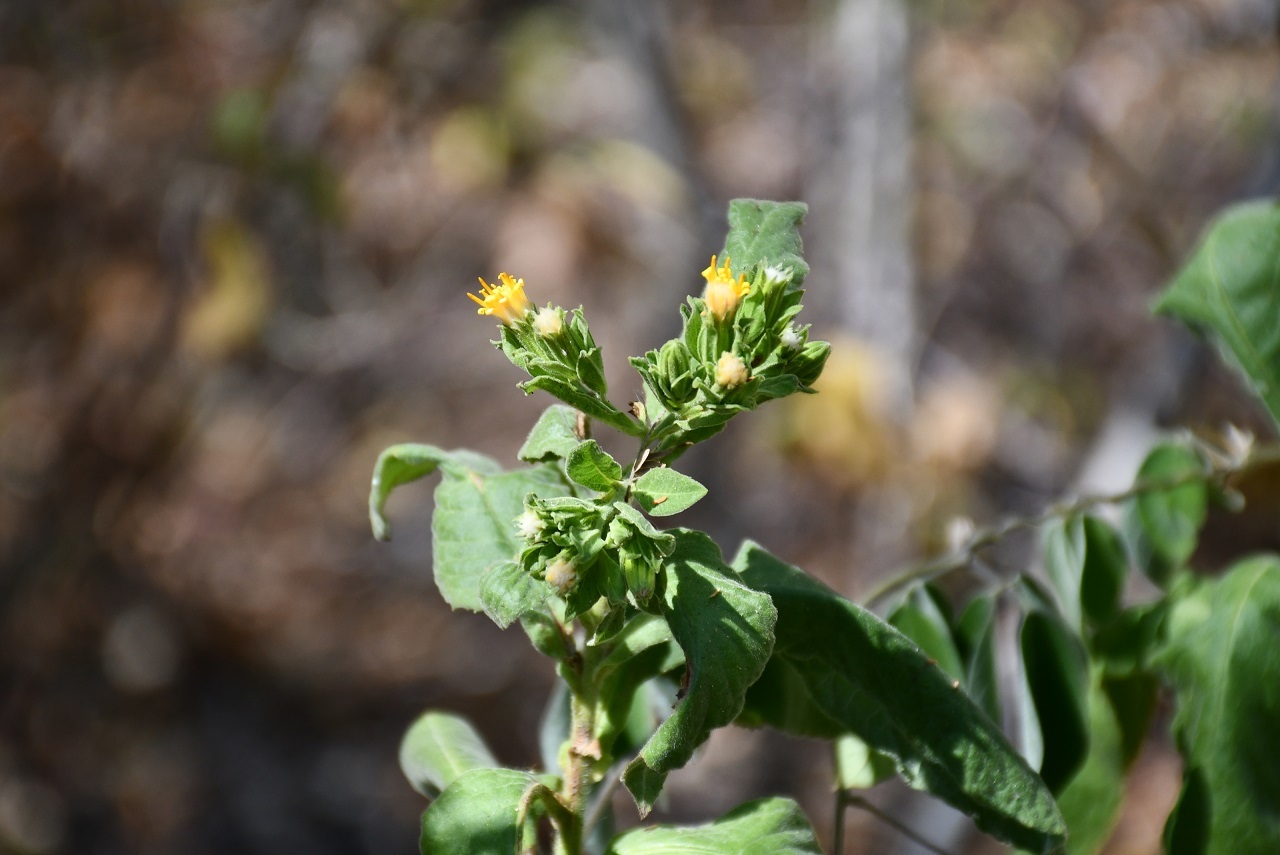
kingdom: Plantae
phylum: Tracheophyta
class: Magnoliopsida
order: Asterales
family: Asteraceae
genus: Trixis
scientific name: Trixis chiapensis
